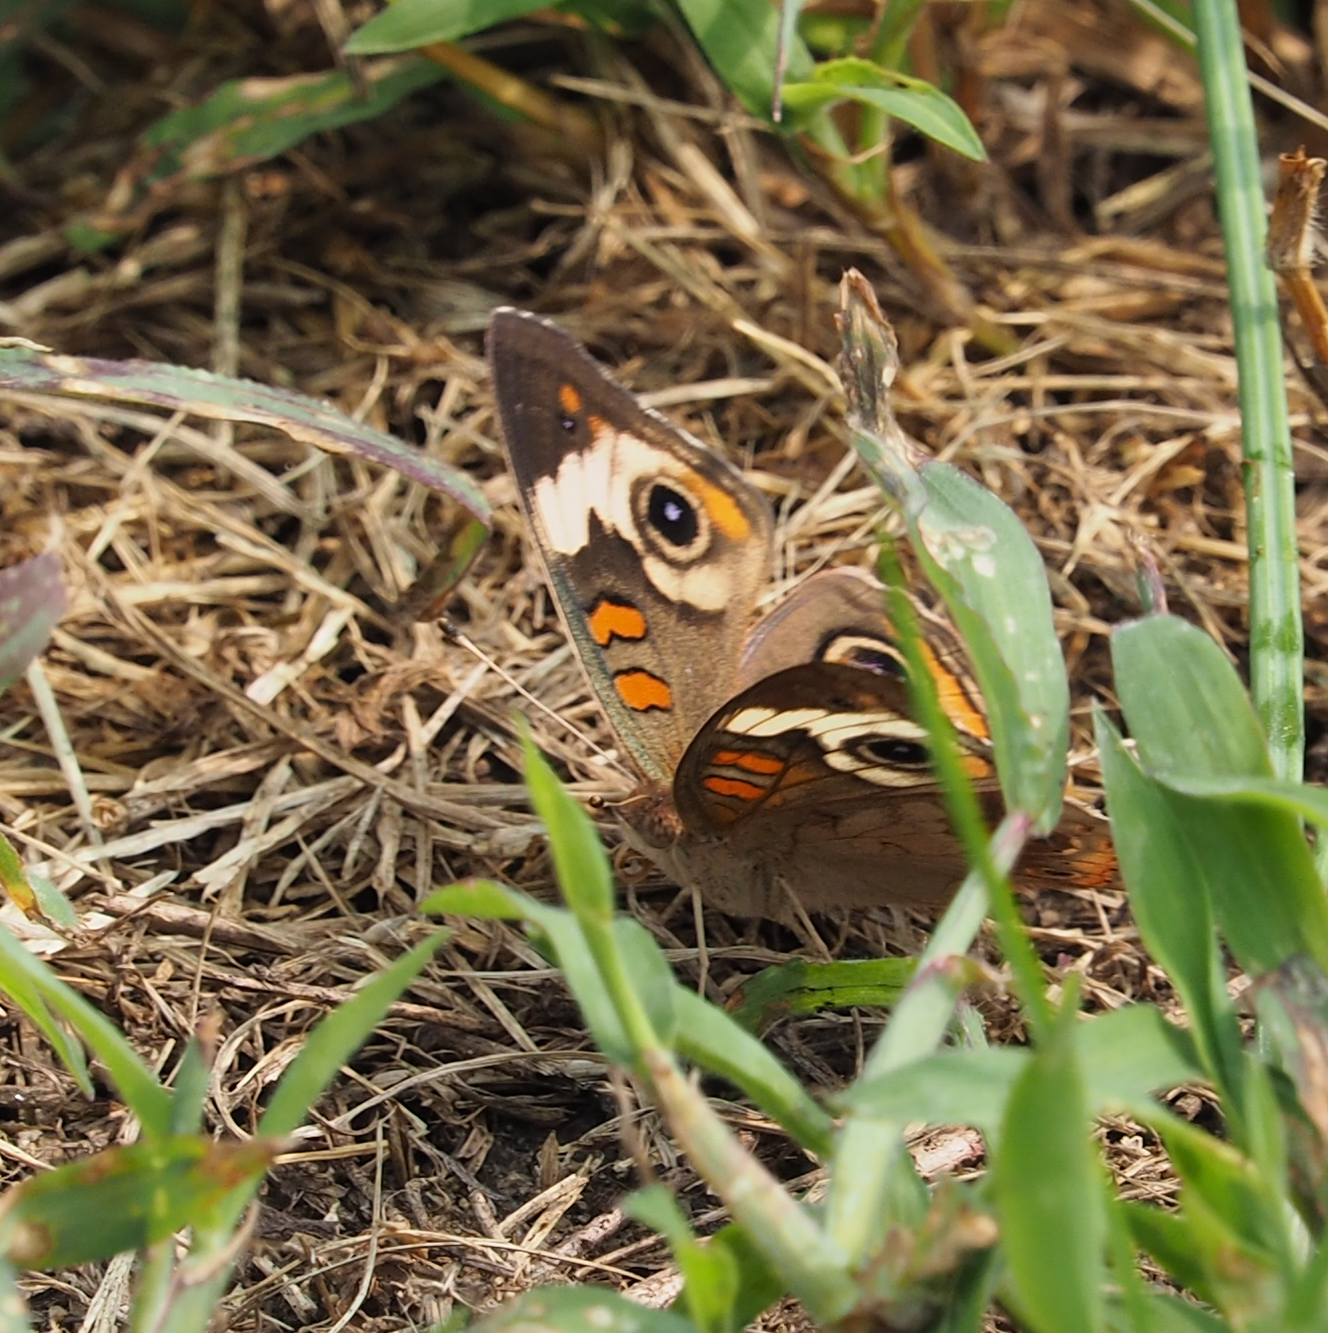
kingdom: Animalia
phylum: Arthropoda
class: Insecta
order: Lepidoptera
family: Nymphalidae
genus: Junonia
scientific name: Junonia coenia
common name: Common buckeye
